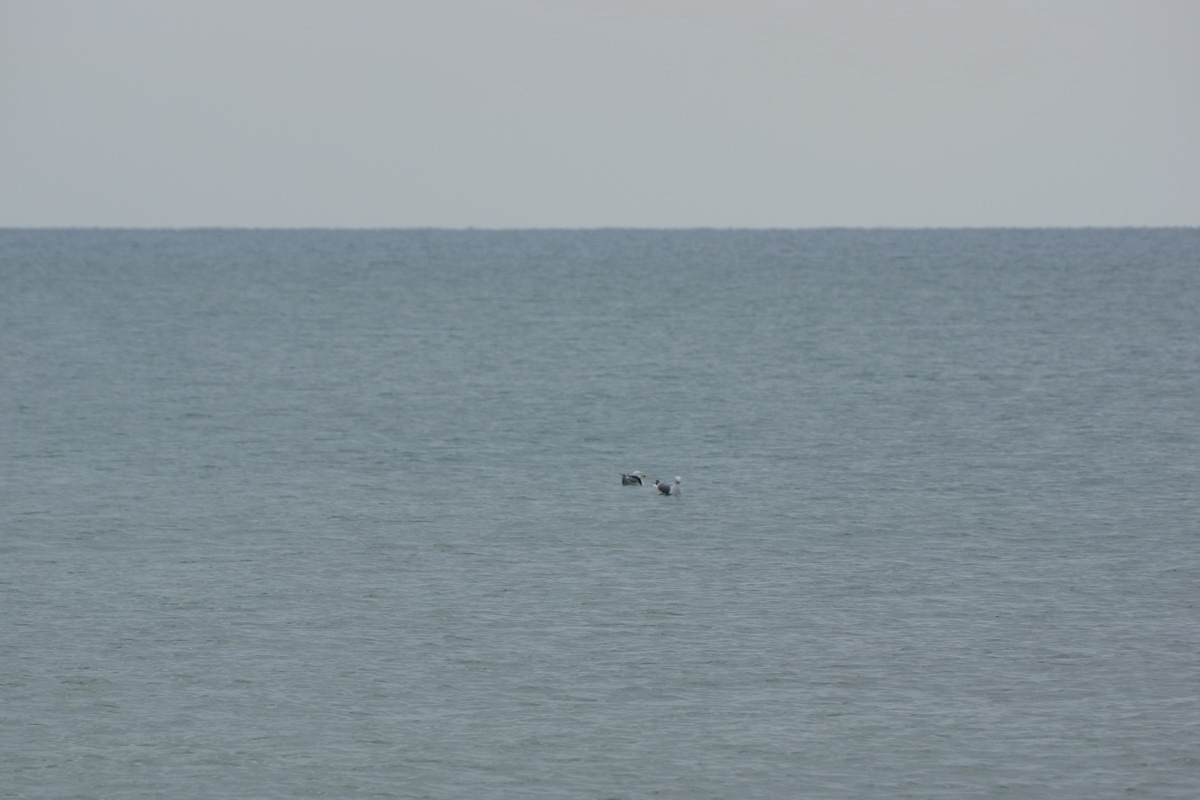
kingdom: Animalia
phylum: Chordata
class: Aves
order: Charadriiformes
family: Laridae
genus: Larus
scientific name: Larus michahellis
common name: Yellow-legged gull
